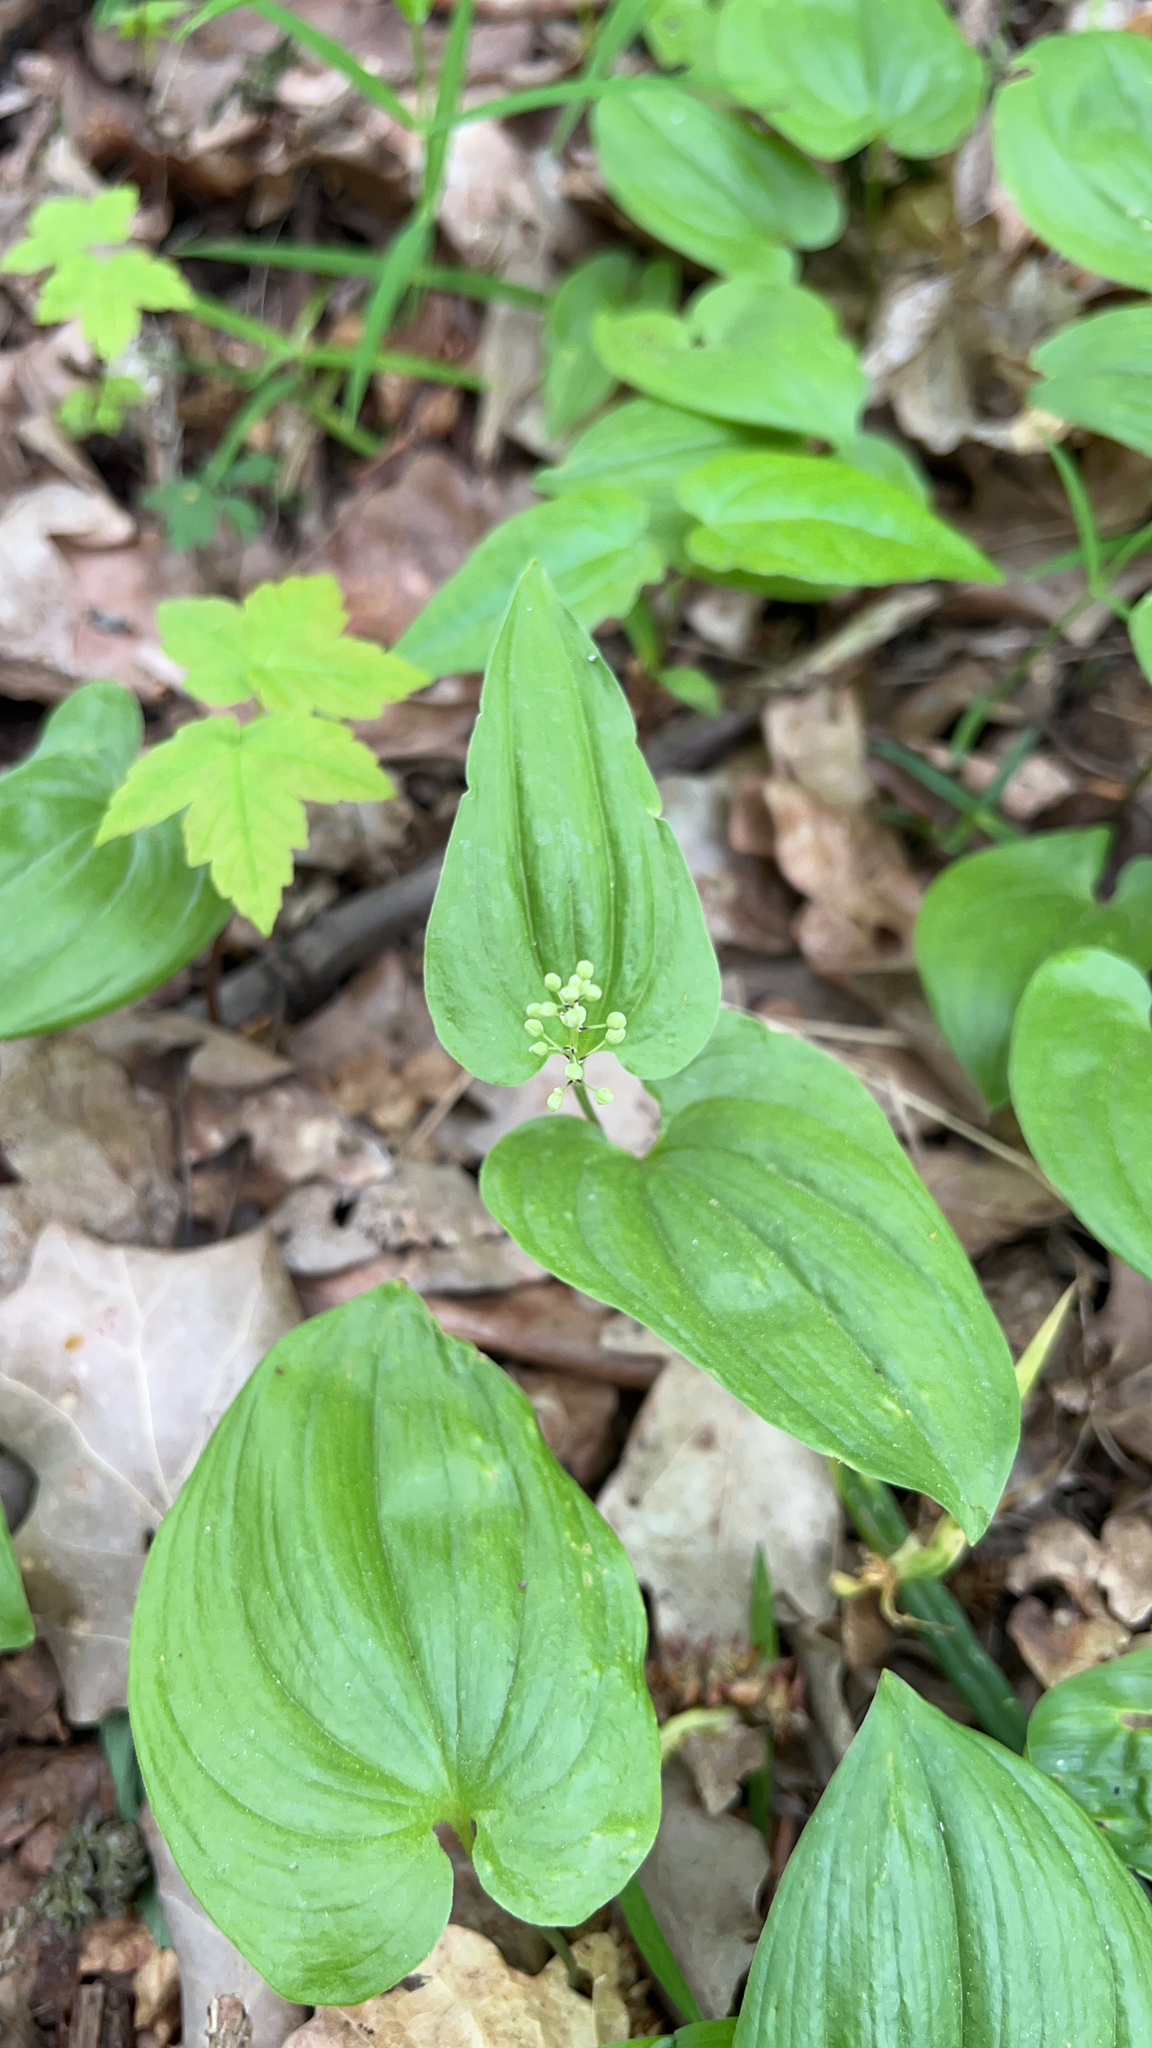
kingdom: Plantae
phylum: Tracheophyta
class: Liliopsida
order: Asparagales
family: Asparagaceae
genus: Maianthemum
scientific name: Maianthemum bifolium
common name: May lily
